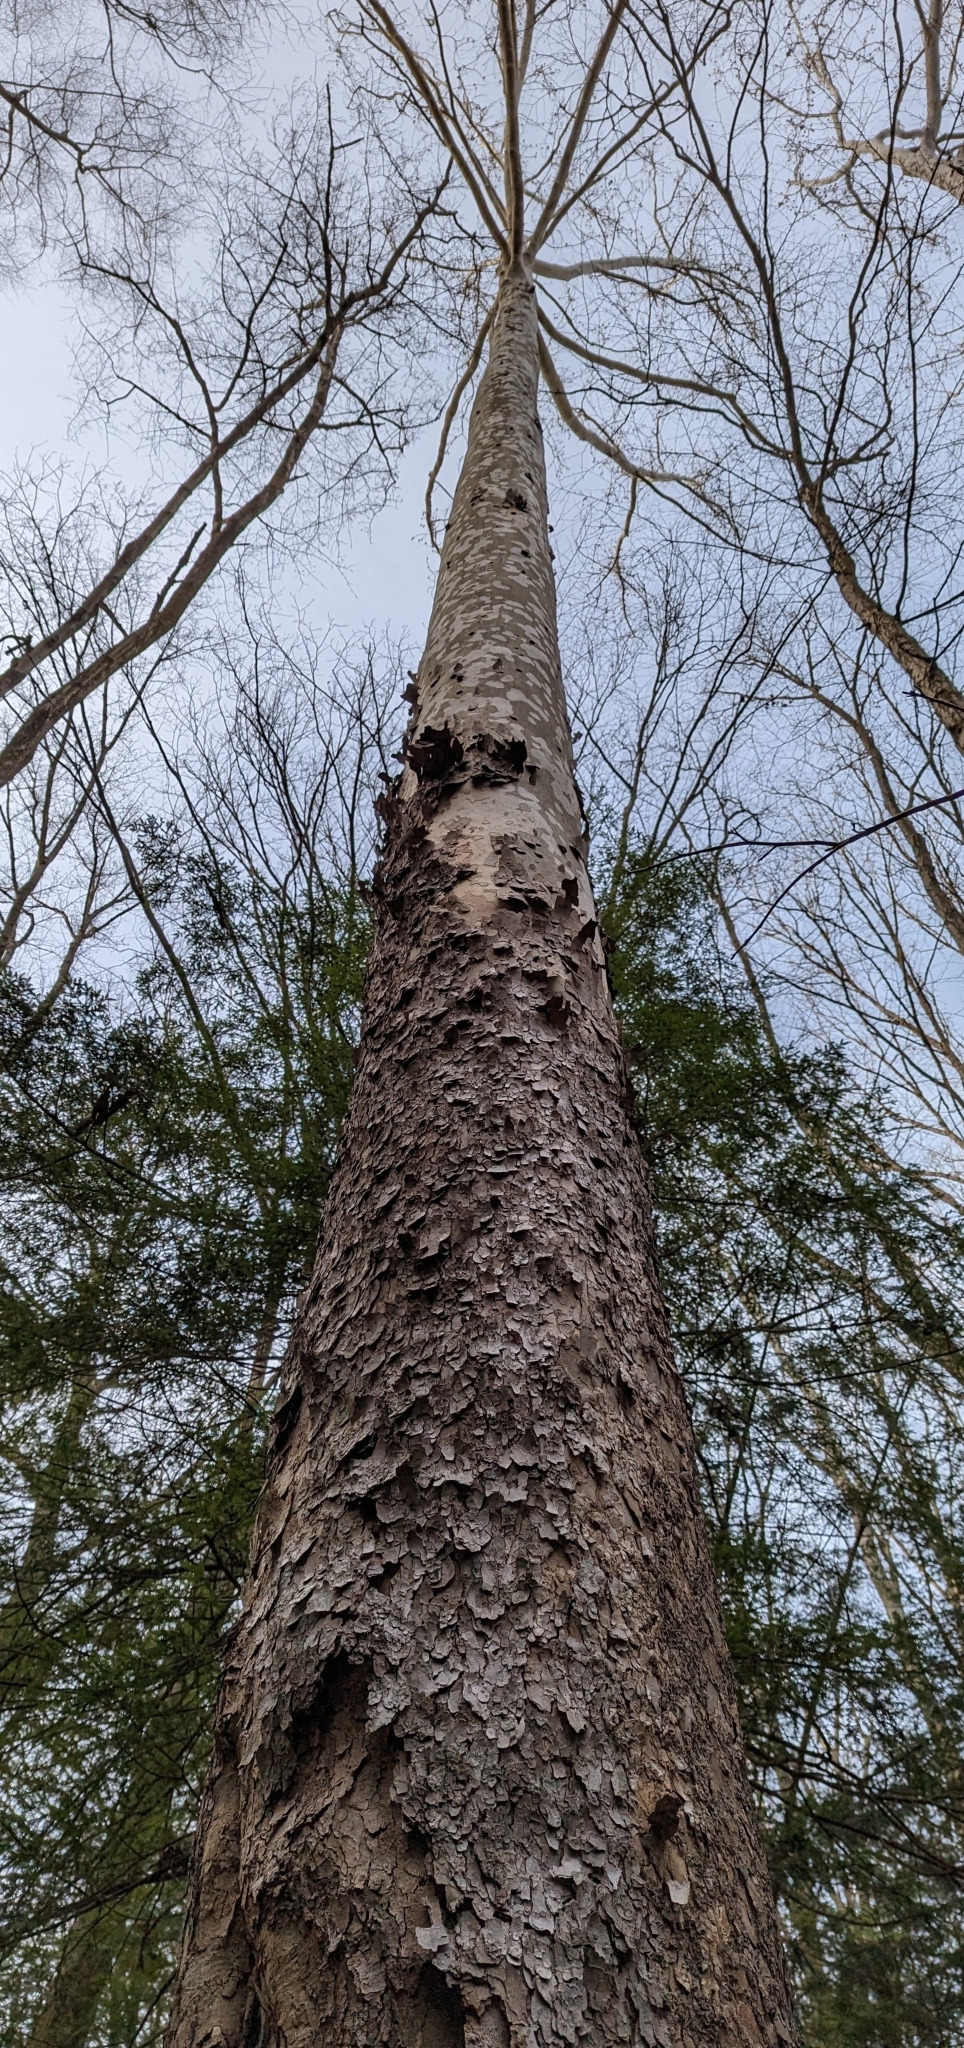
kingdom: Plantae
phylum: Tracheophyta
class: Magnoliopsida
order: Proteales
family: Platanaceae
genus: Platanus
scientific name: Platanus occidentalis
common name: American sycamore
